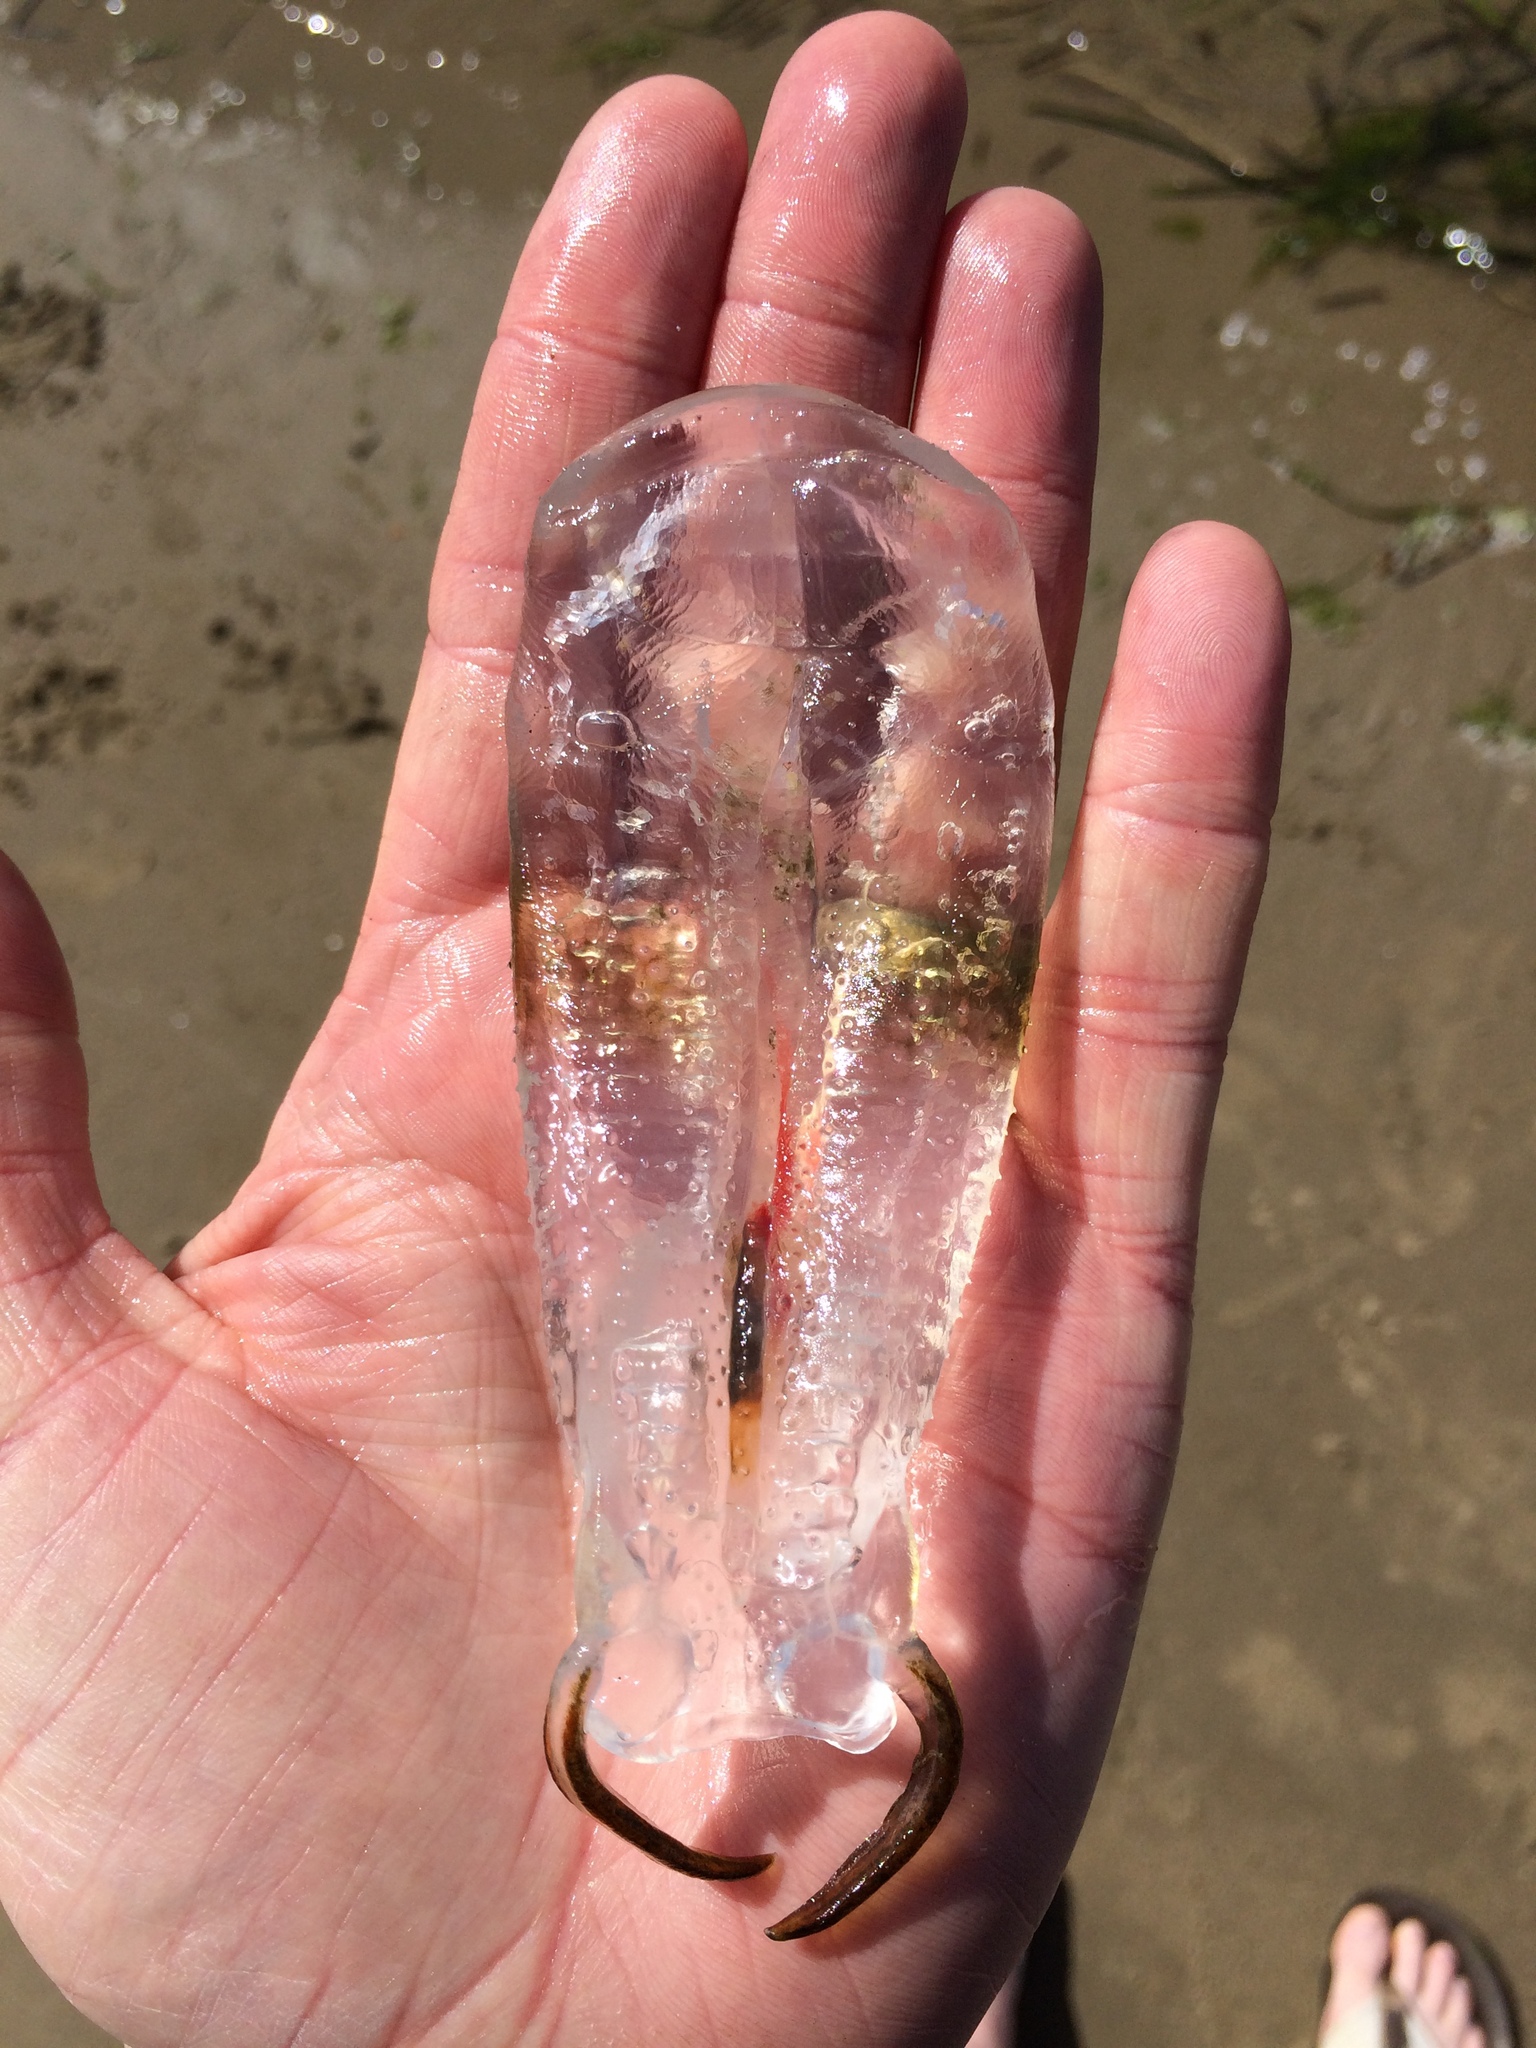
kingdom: Animalia
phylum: Chordata
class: Thaliacea
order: Salpida
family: Salpidae
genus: Thetys
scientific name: Thetys vagina
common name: Vagina salp
